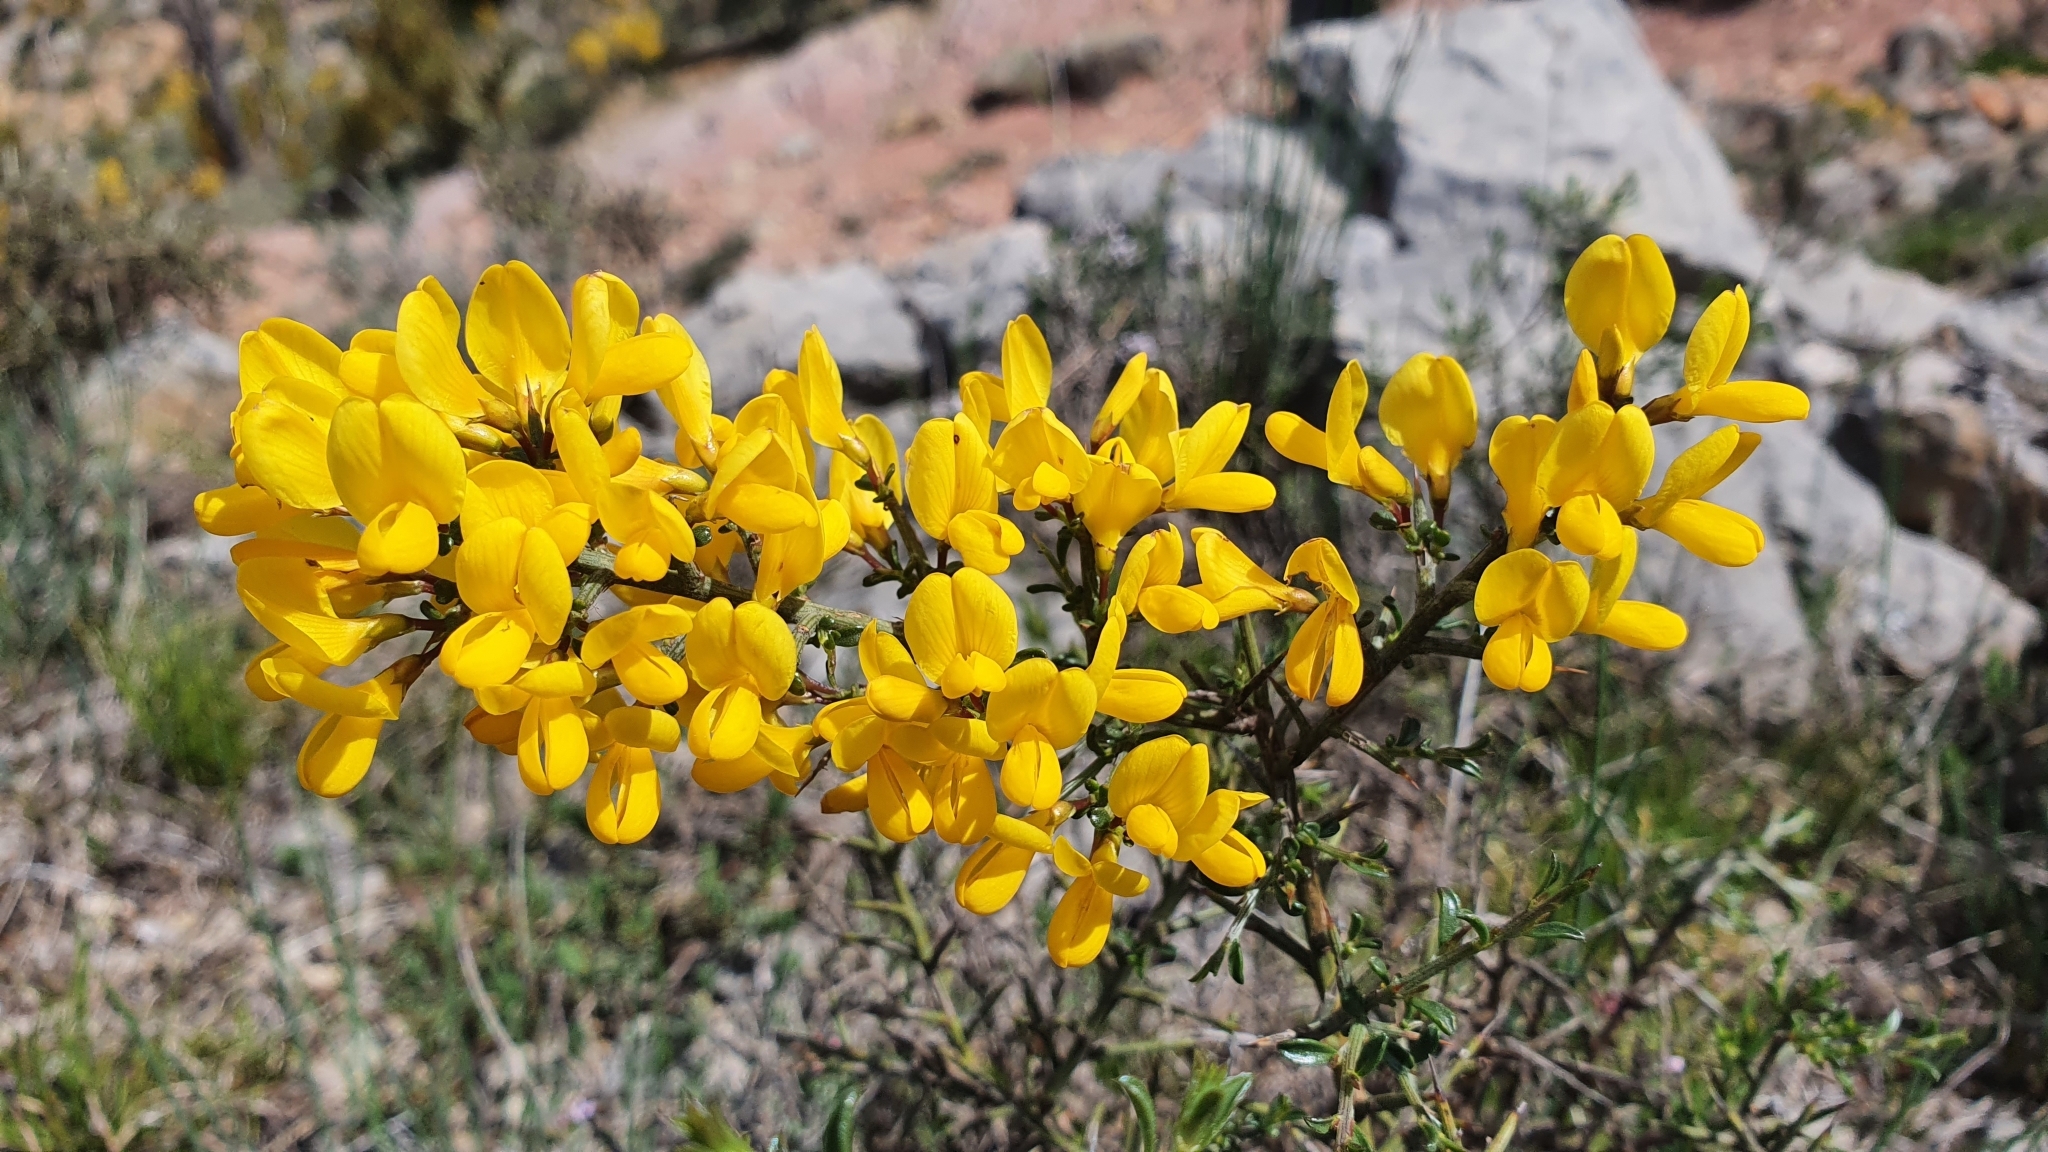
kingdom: Plantae
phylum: Tracheophyta
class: Magnoliopsida
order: Fabales
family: Fabaceae
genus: Genista
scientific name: Genista scorpius
